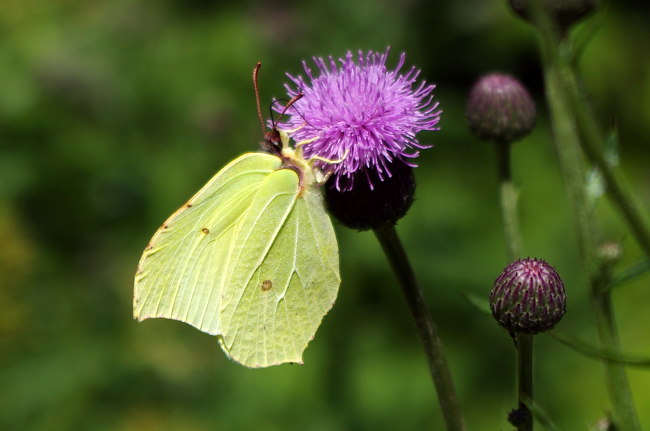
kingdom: Animalia
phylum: Arthropoda
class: Insecta
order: Lepidoptera
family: Pieridae
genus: Gonepteryx
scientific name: Gonepteryx rhamni
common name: Brimstone
